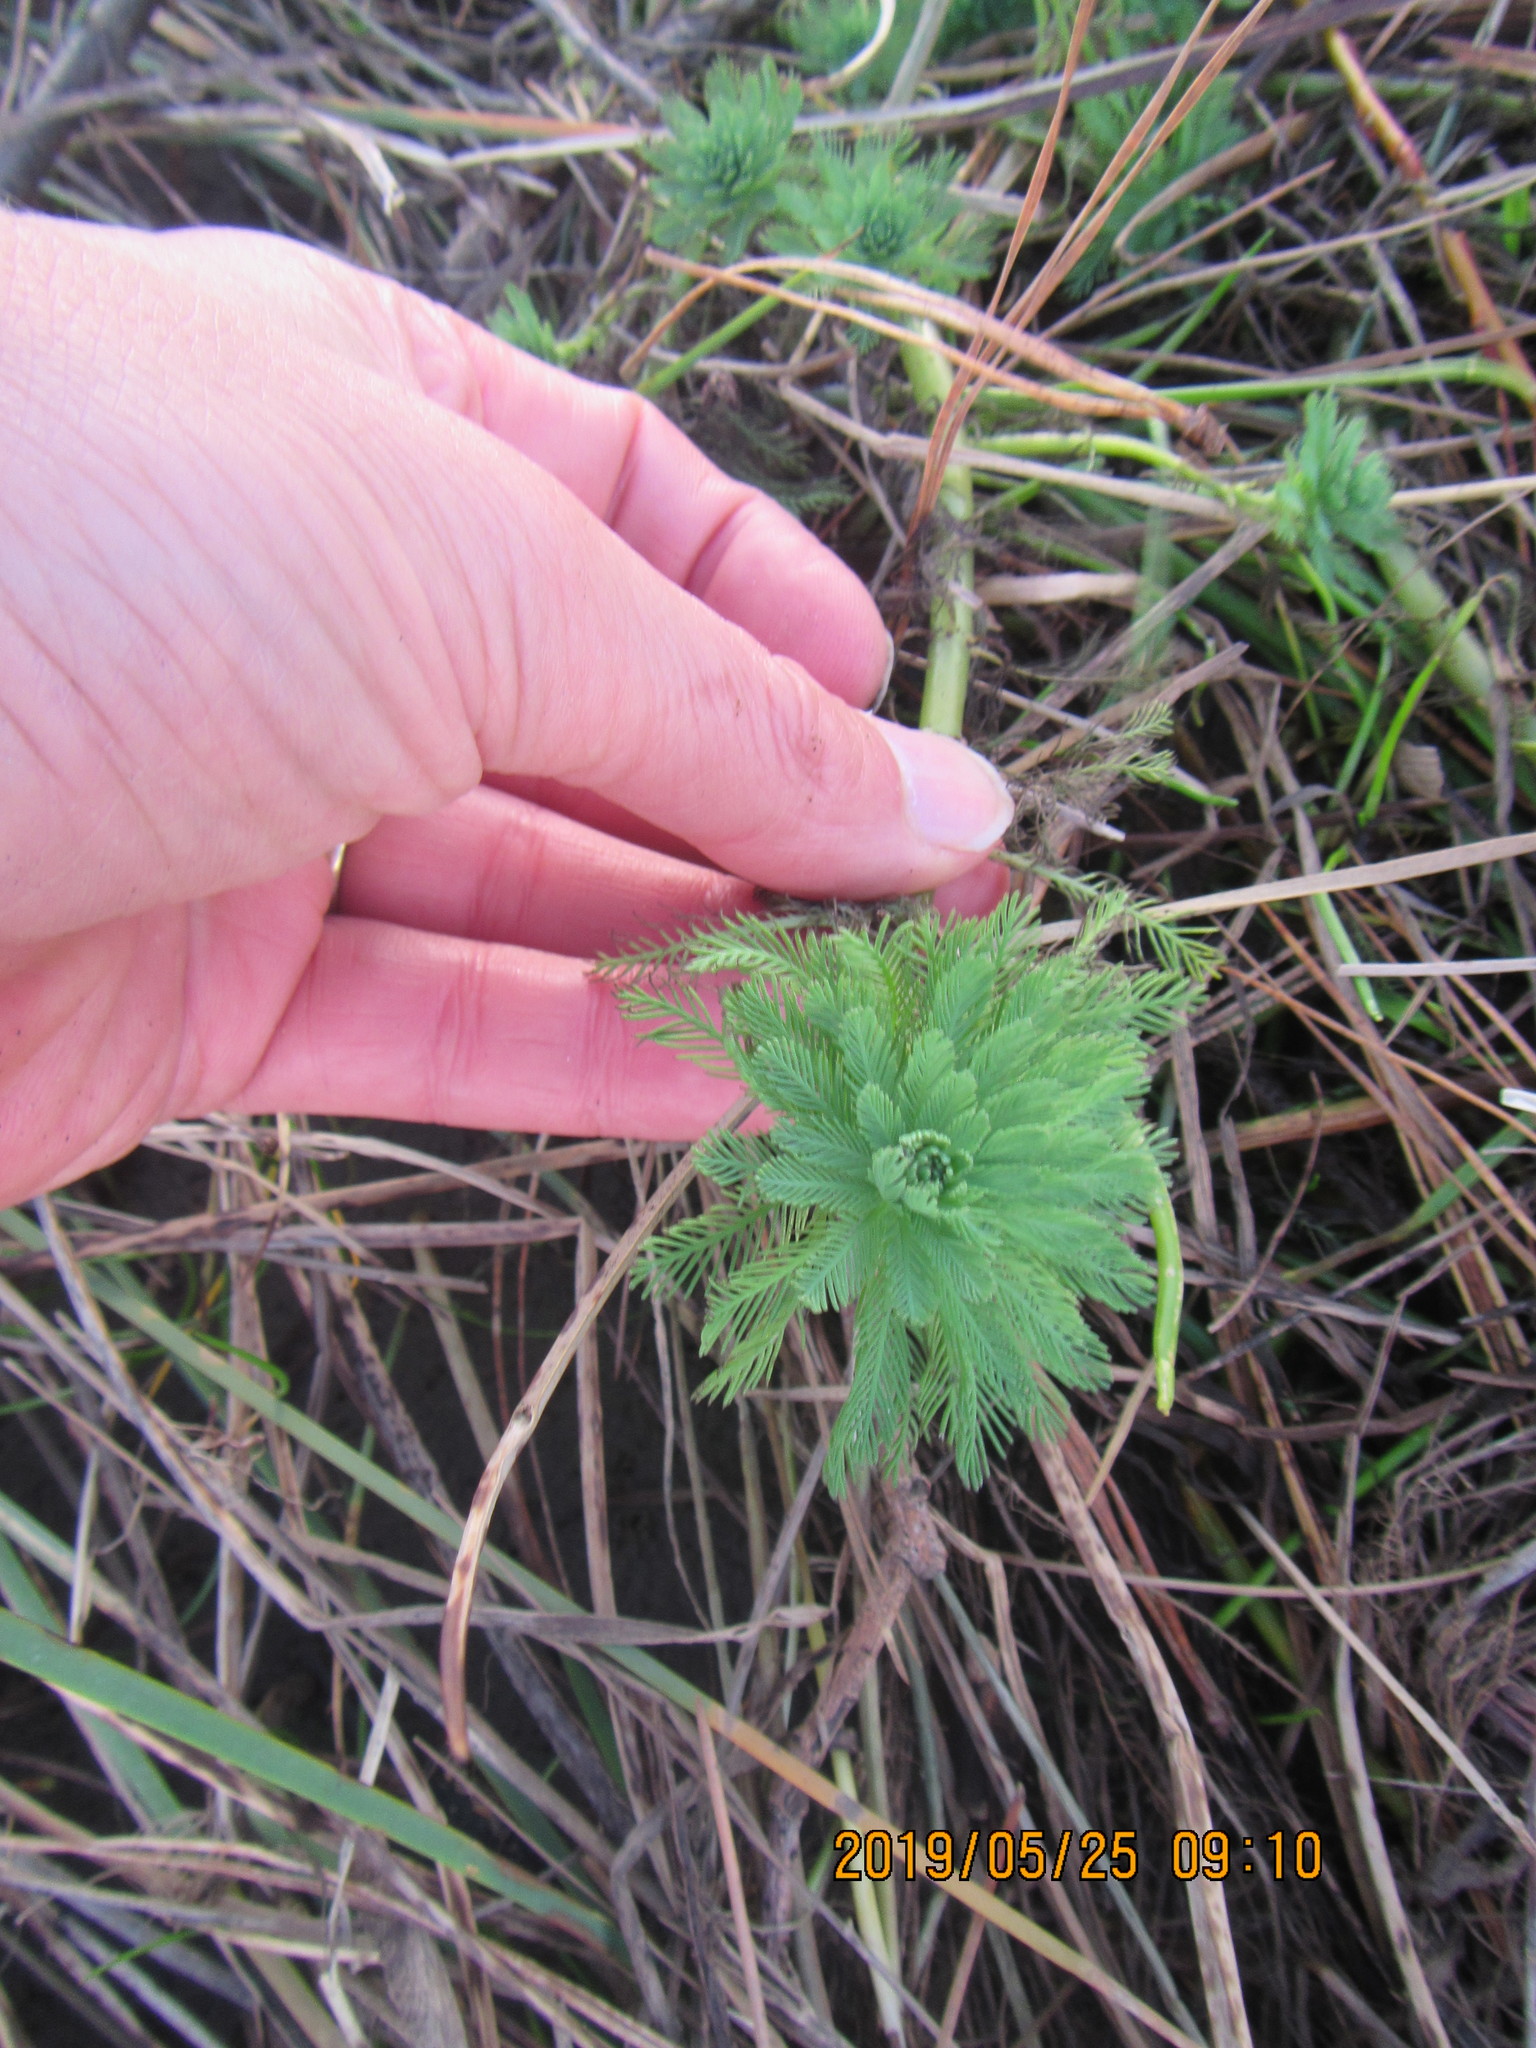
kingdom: Plantae
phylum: Tracheophyta
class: Magnoliopsida
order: Saxifragales
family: Haloragaceae
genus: Myriophyllum
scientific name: Myriophyllum aquaticum
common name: Parrot's feather
